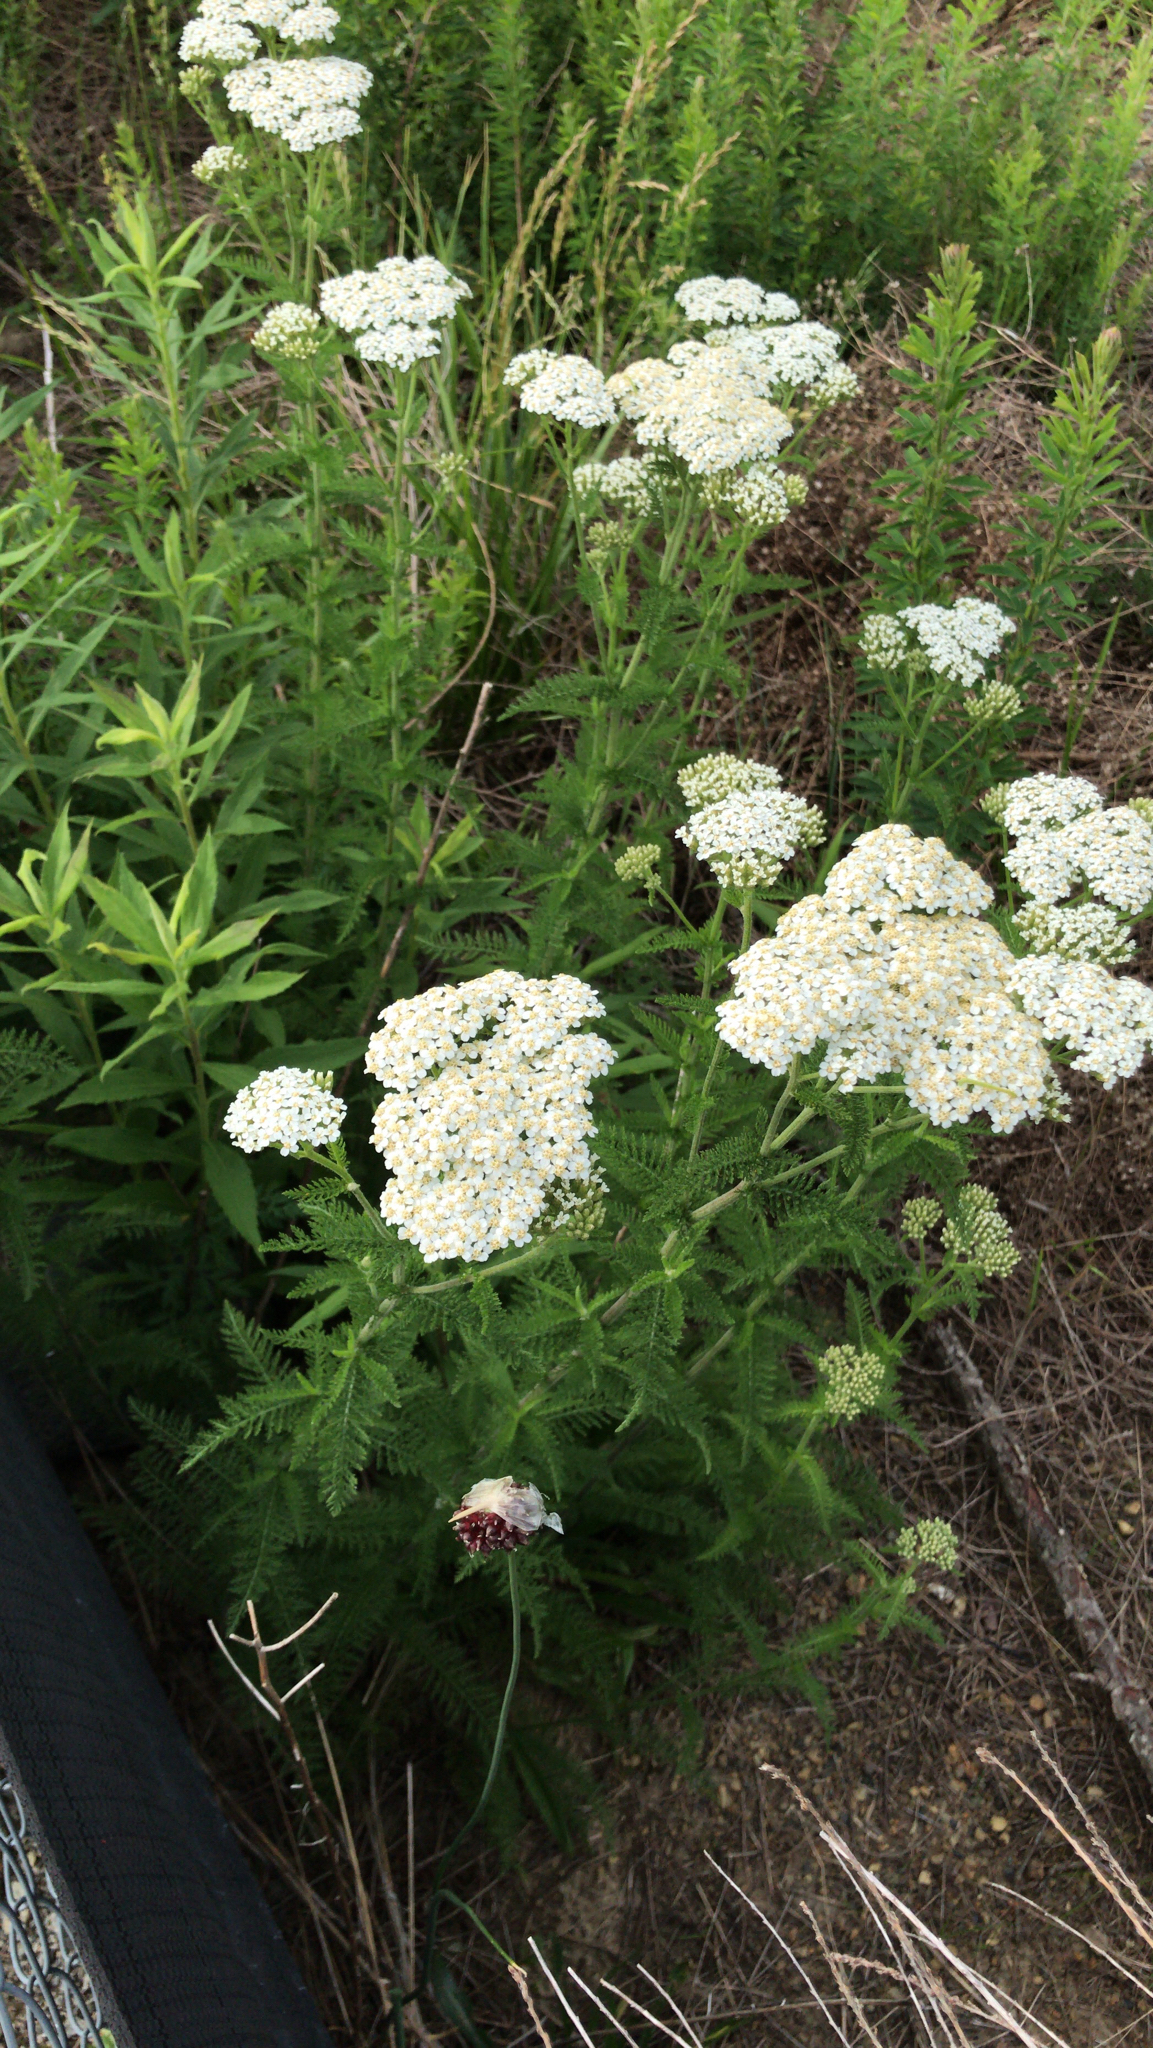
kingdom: Plantae
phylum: Tracheophyta
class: Magnoliopsida
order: Asterales
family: Asteraceae
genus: Achillea
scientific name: Achillea millefolium
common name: Yarrow
